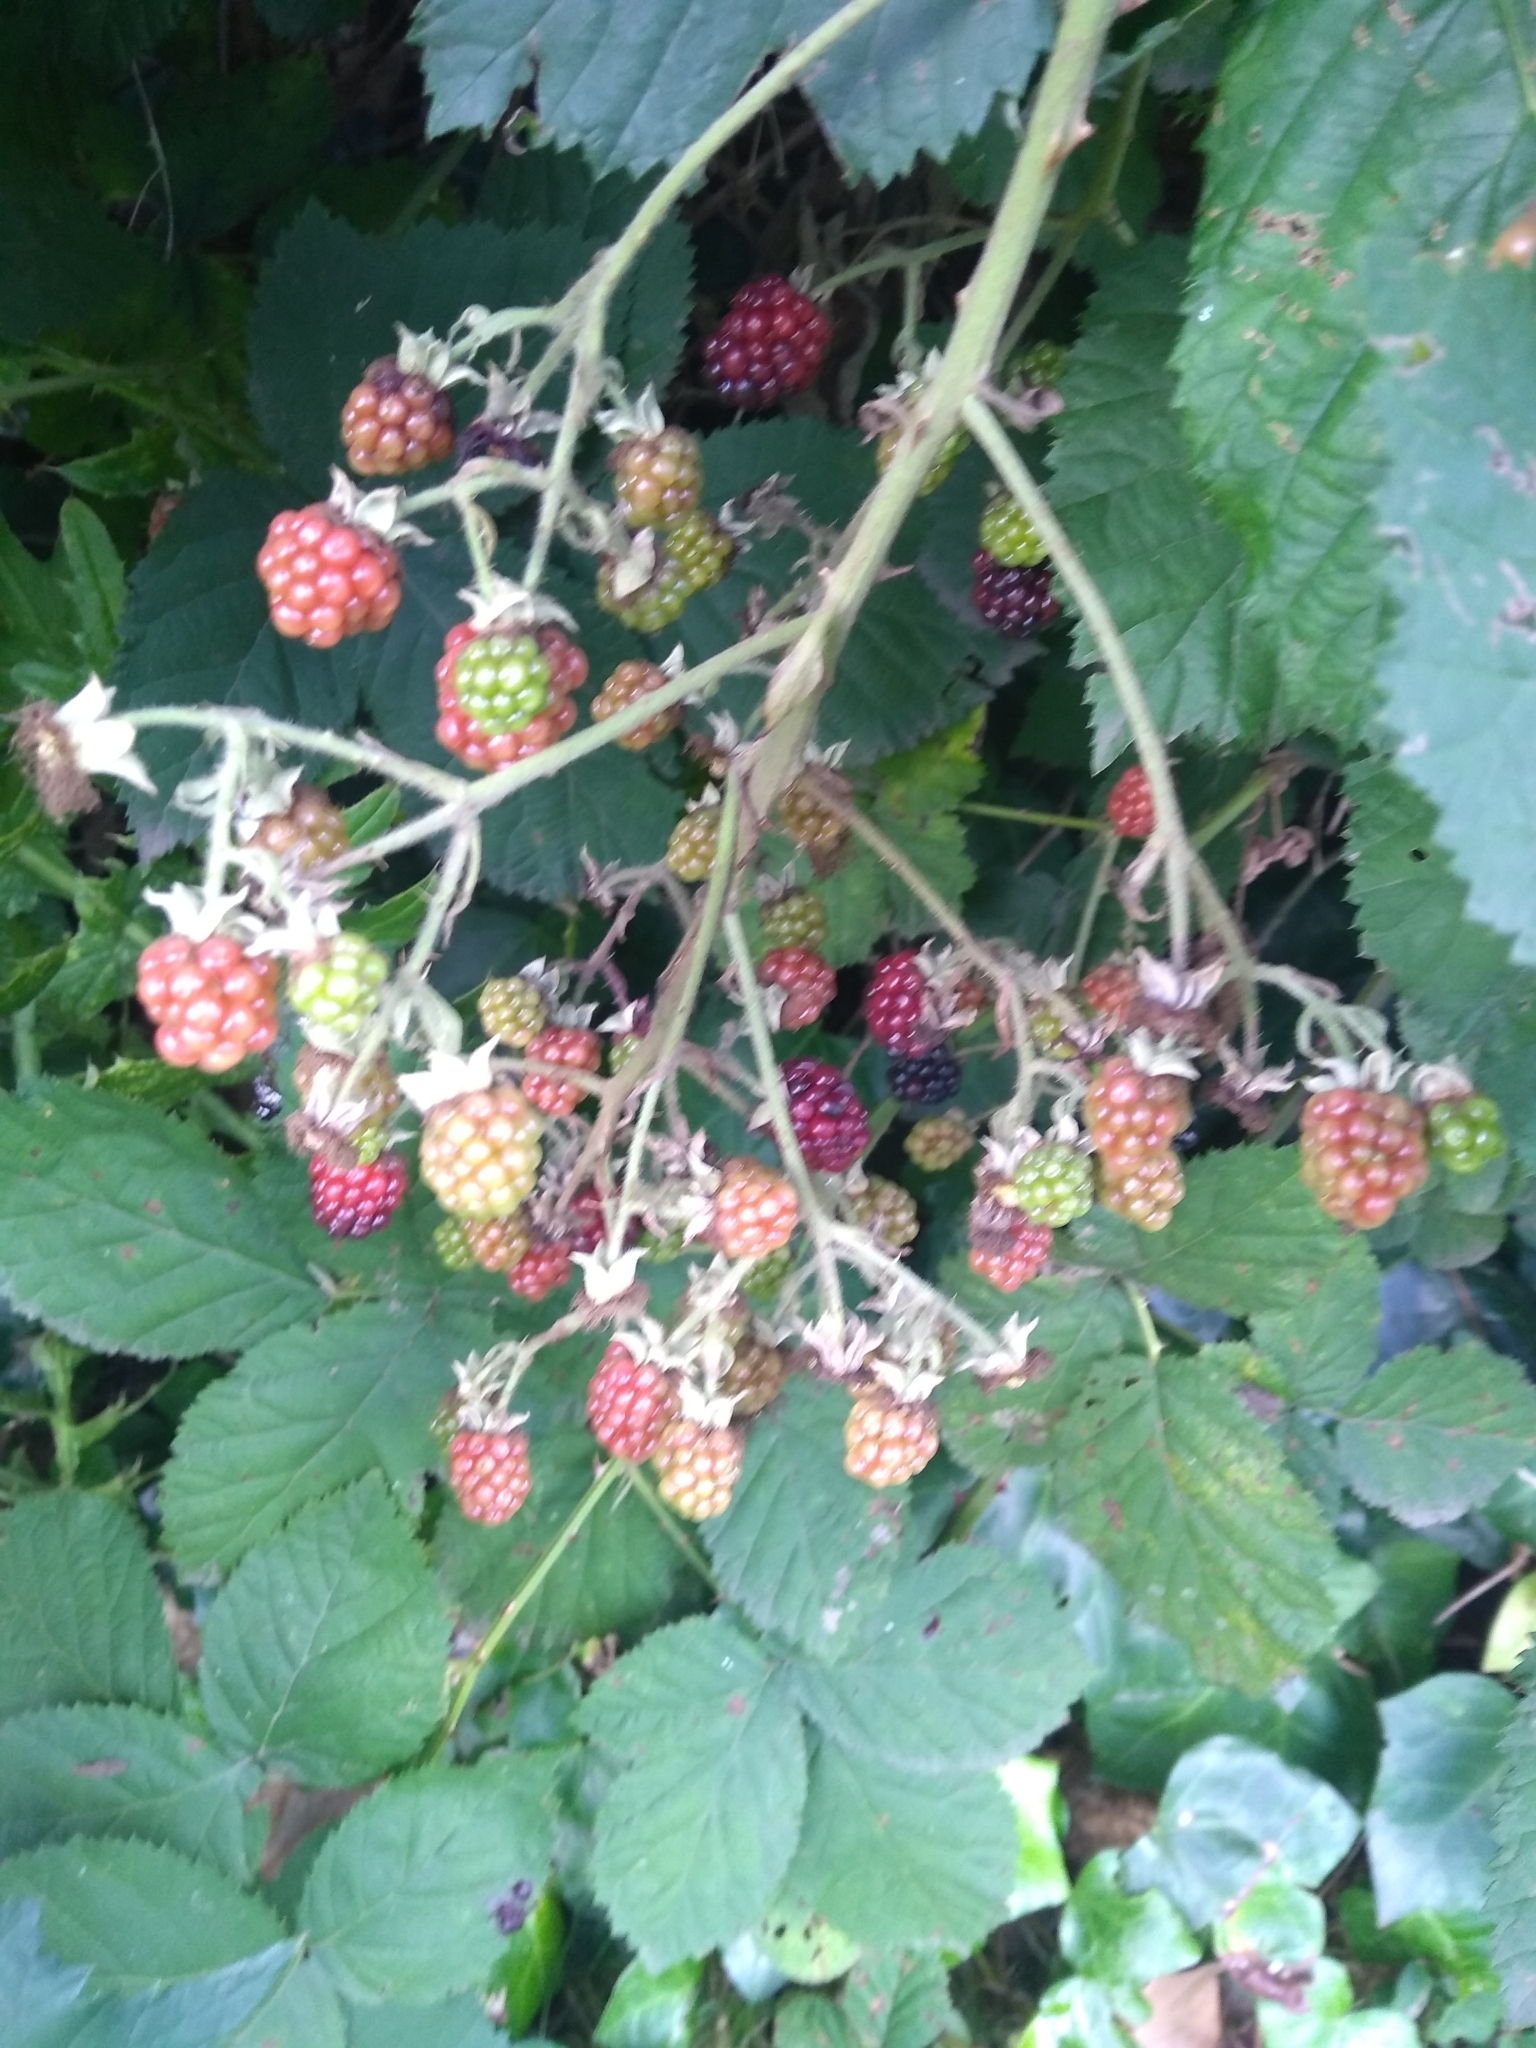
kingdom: Plantae
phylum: Tracheophyta
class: Magnoliopsida
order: Rosales
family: Rosaceae
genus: Rubus
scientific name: Rubus ulmifolius
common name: Elmleaf blackberry
